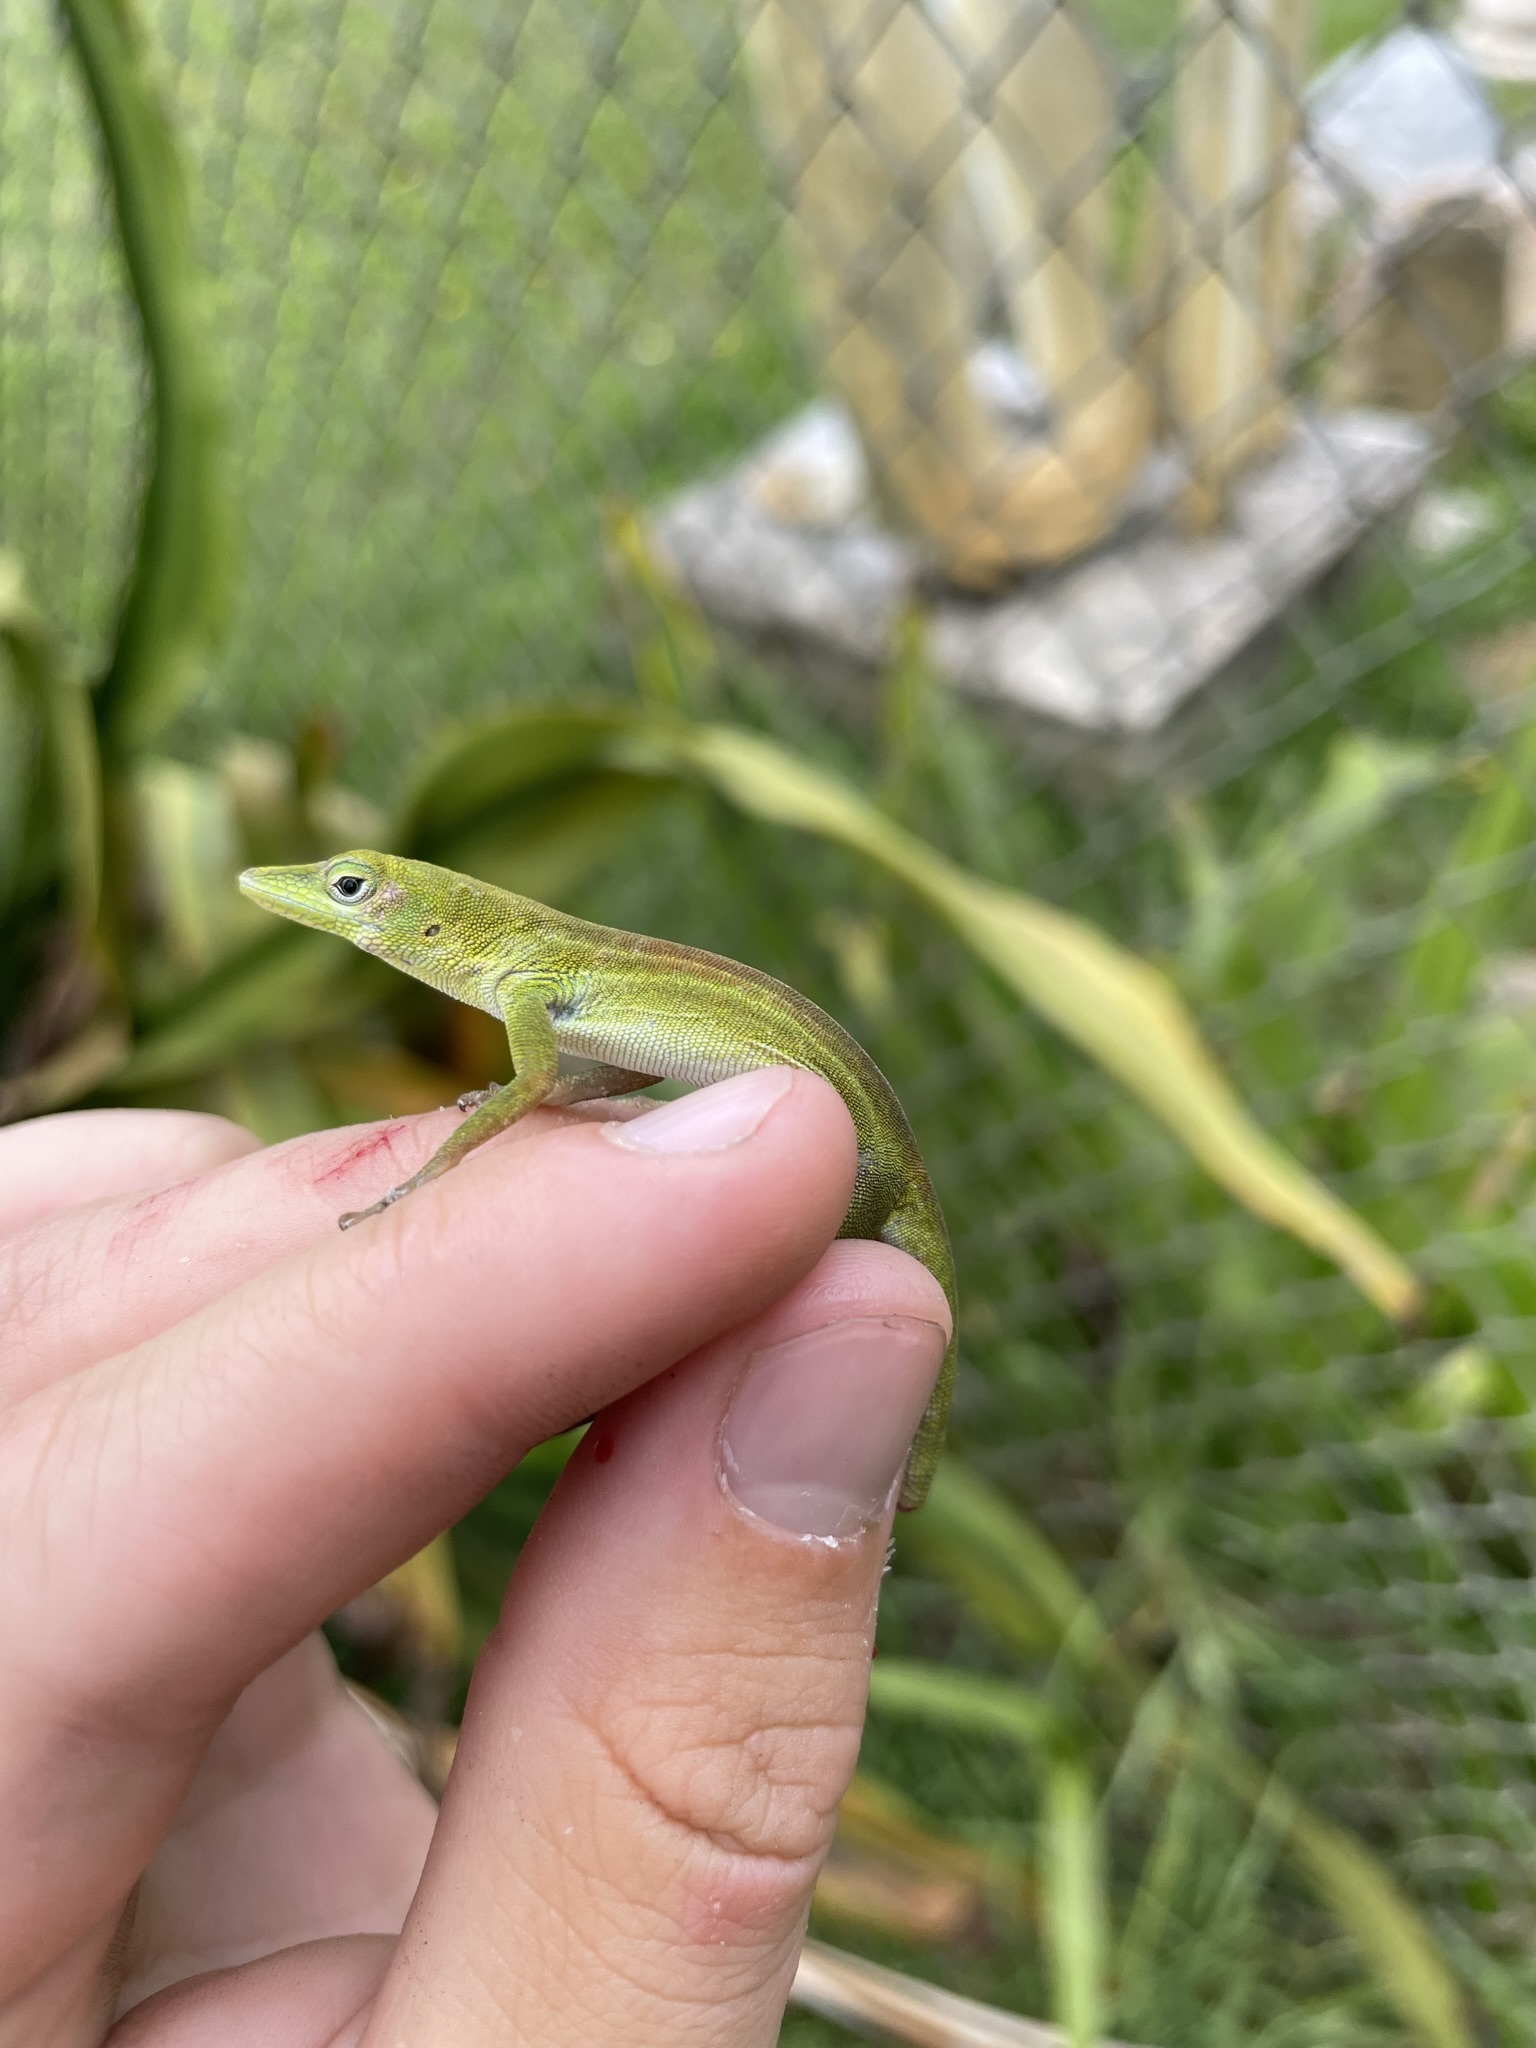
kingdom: Animalia
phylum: Chordata
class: Squamata
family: Dactyloidae
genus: Anolis
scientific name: Anolis chlorocyanus
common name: Hispaniolan green anole
